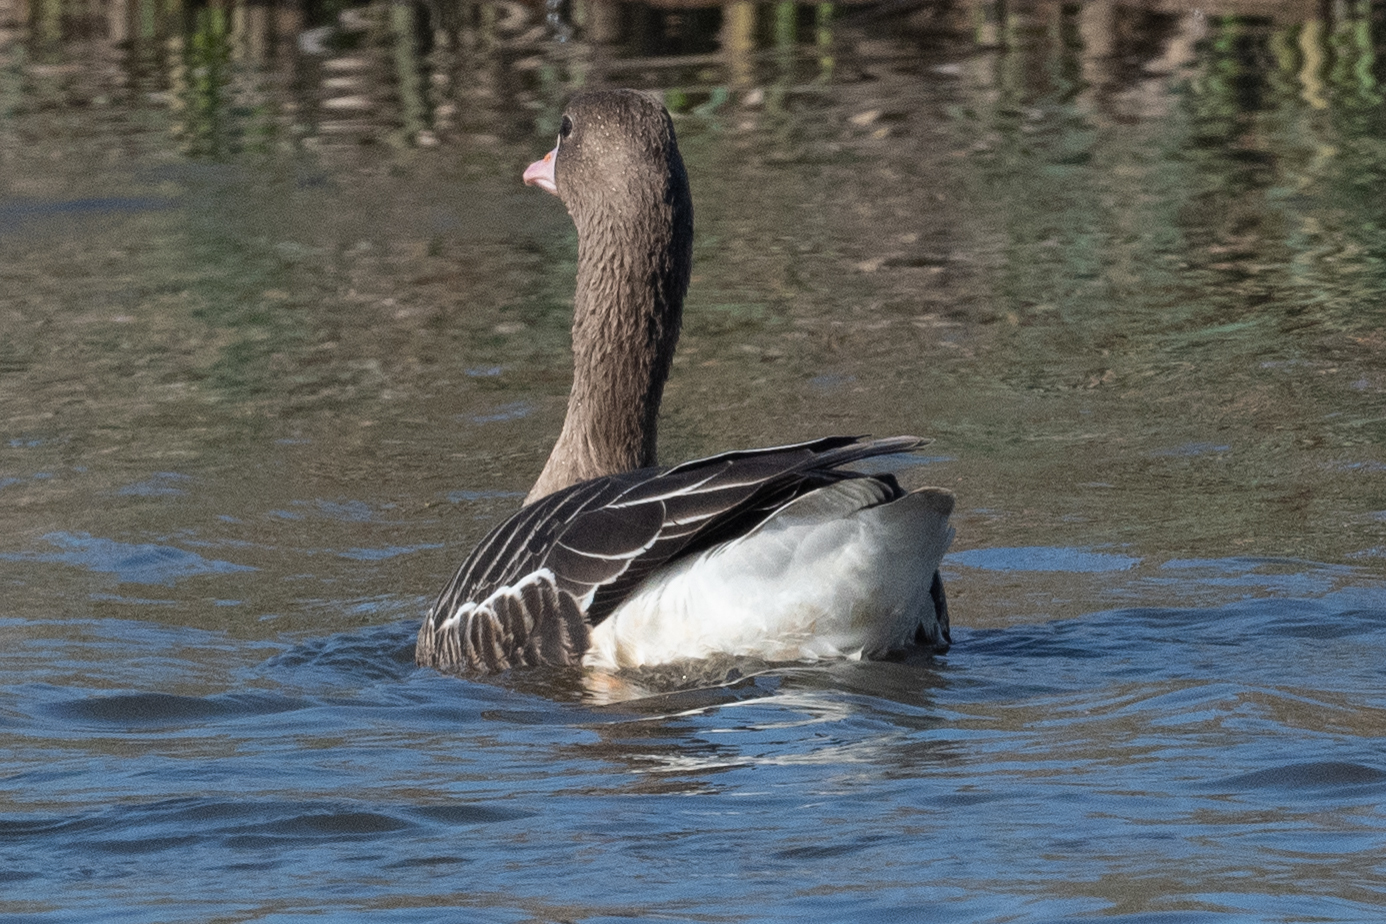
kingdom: Animalia
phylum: Chordata
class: Aves
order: Anseriformes
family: Anatidae
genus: Anser
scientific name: Anser albifrons
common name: Greater white-fronted goose
